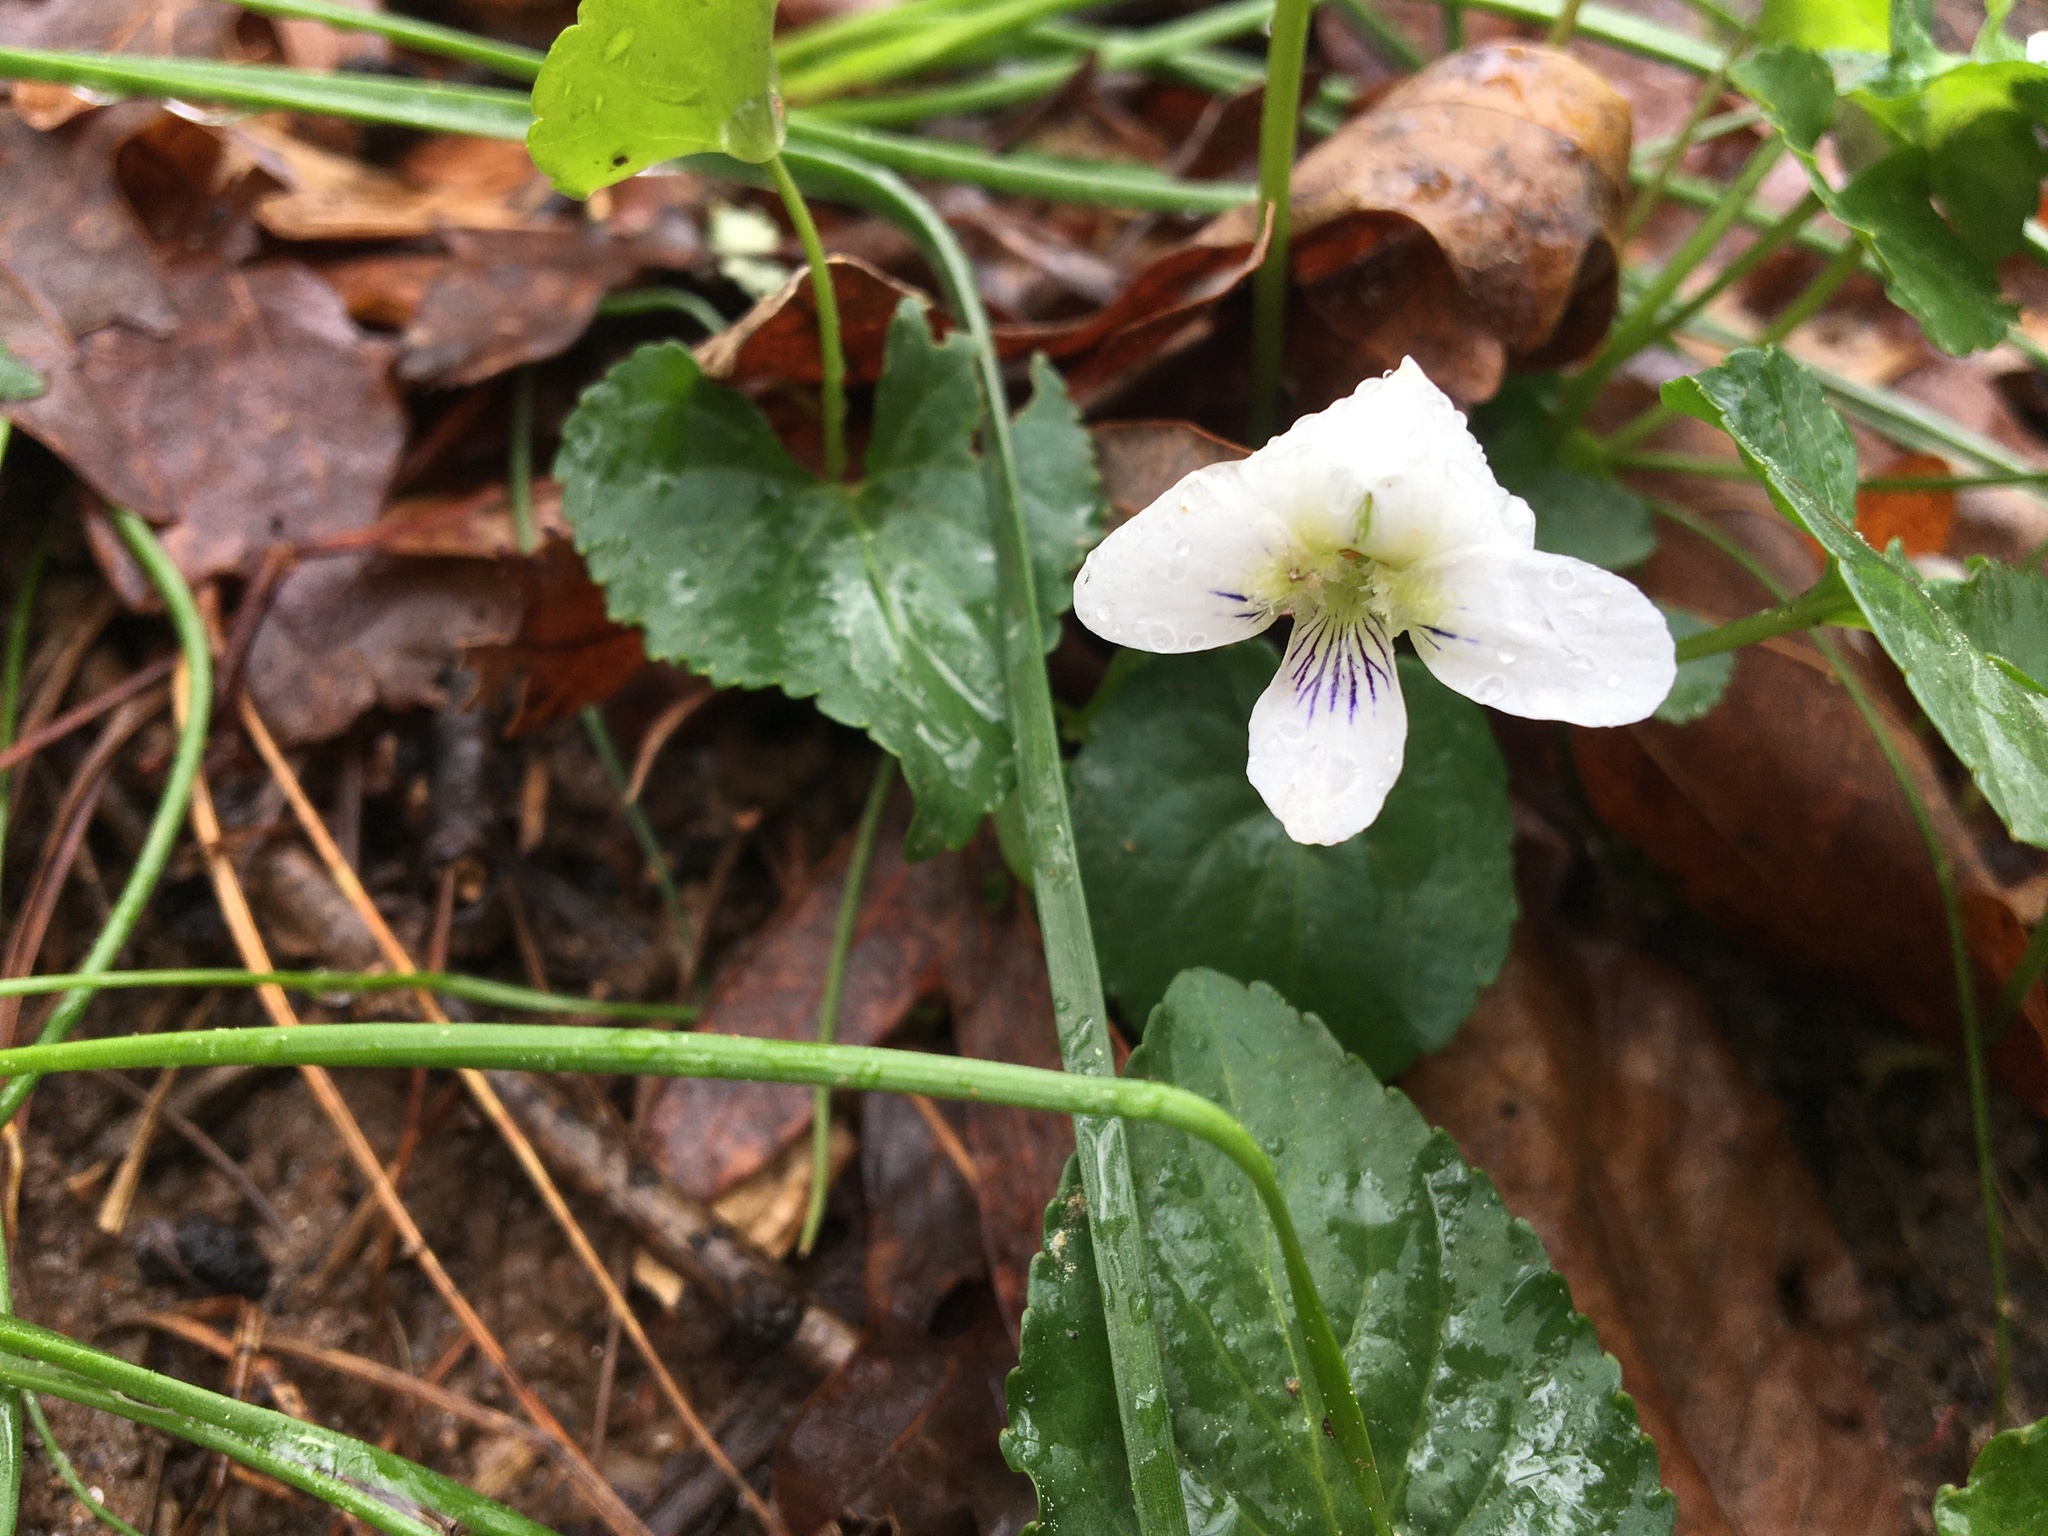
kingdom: Plantae
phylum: Tracheophyta
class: Magnoliopsida
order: Malpighiales
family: Violaceae
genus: Viola
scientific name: Viola primulifolia
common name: Primrose-leaf violet
